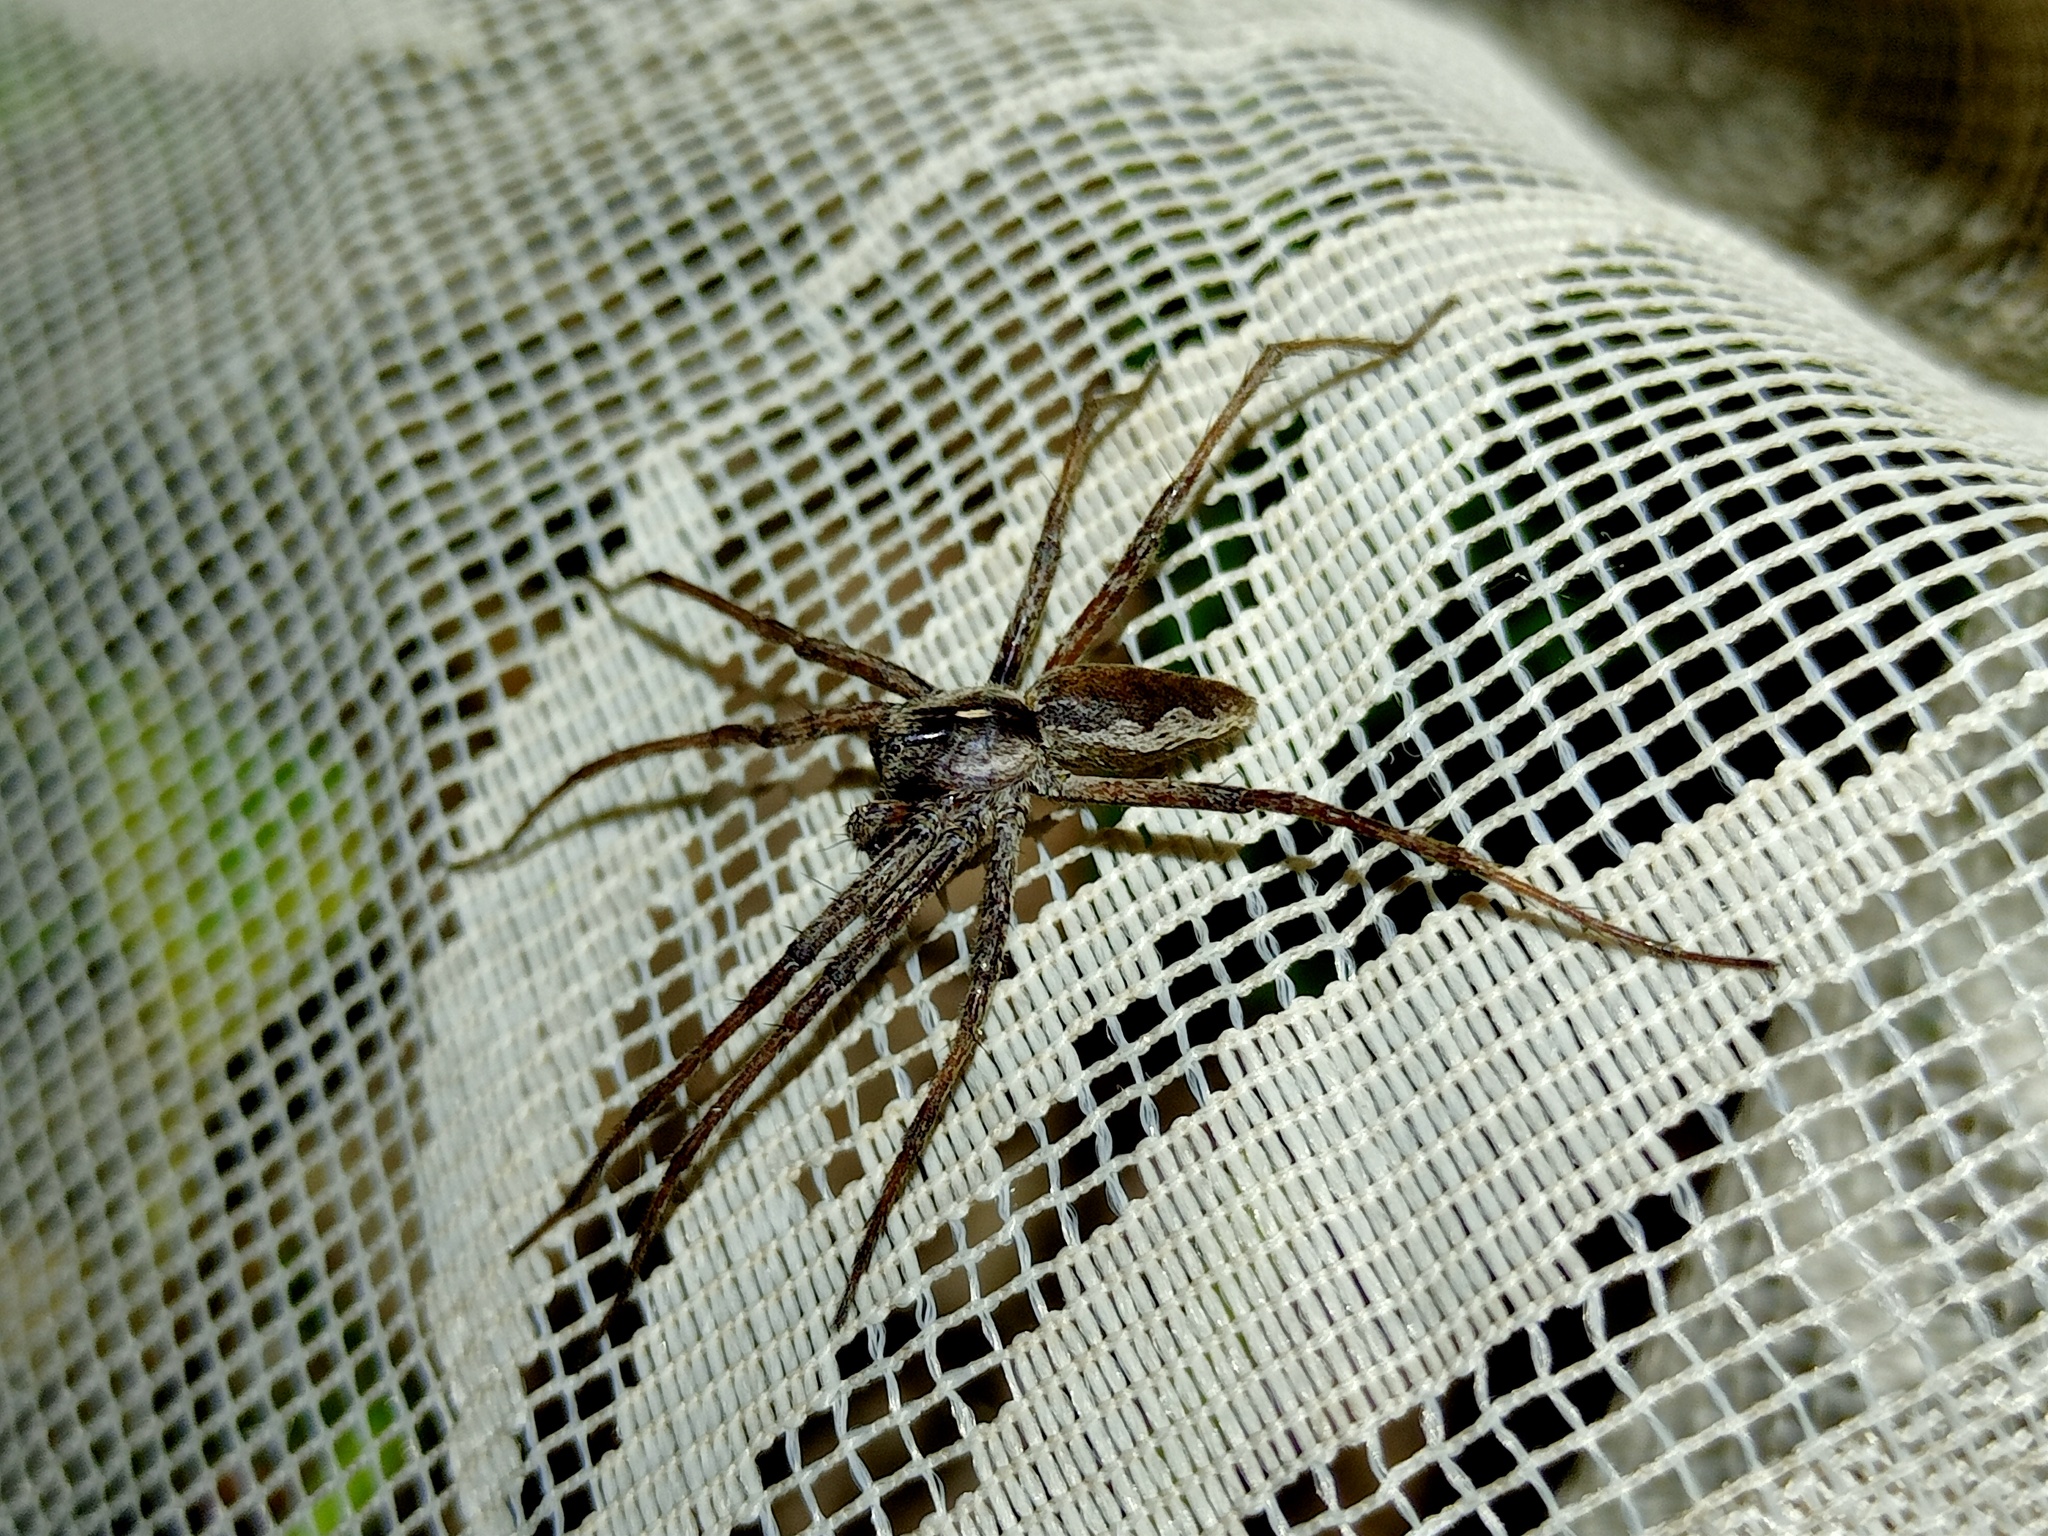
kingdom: Animalia
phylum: Arthropoda
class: Arachnida
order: Araneae
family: Pisauridae
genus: Pisaura
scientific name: Pisaura mirabilis
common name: Tent spider
